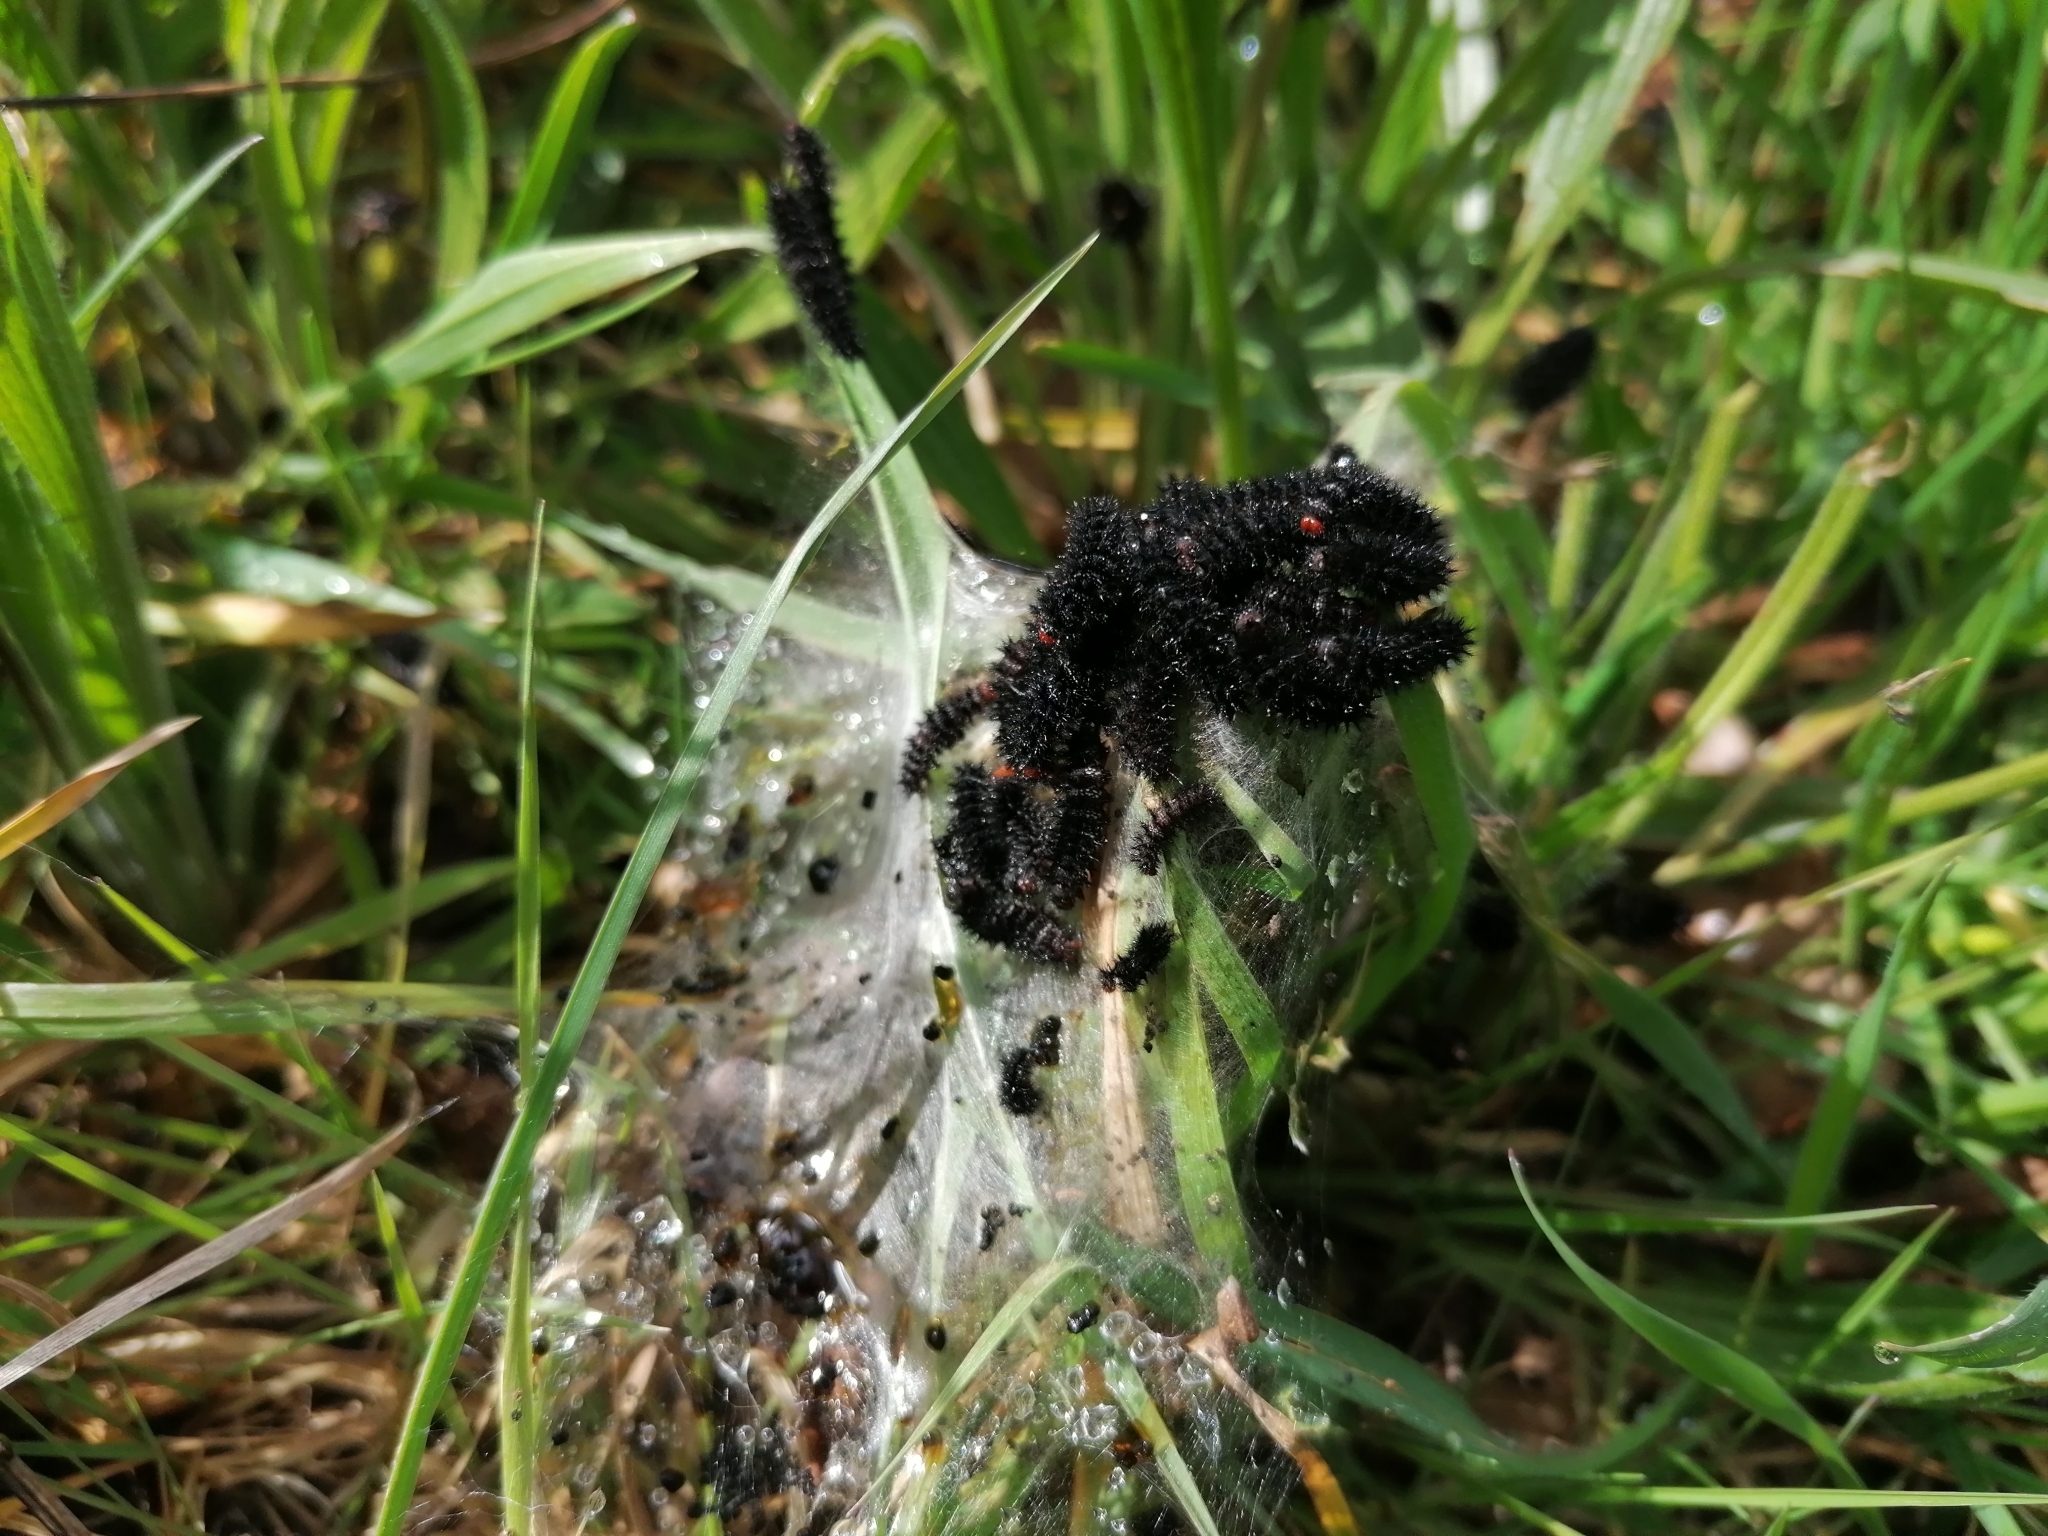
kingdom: Animalia
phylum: Arthropoda
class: Insecta
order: Lepidoptera
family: Nymphalidae
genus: Melitaea
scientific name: Melitaea cinxia
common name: Glanville fritillary
